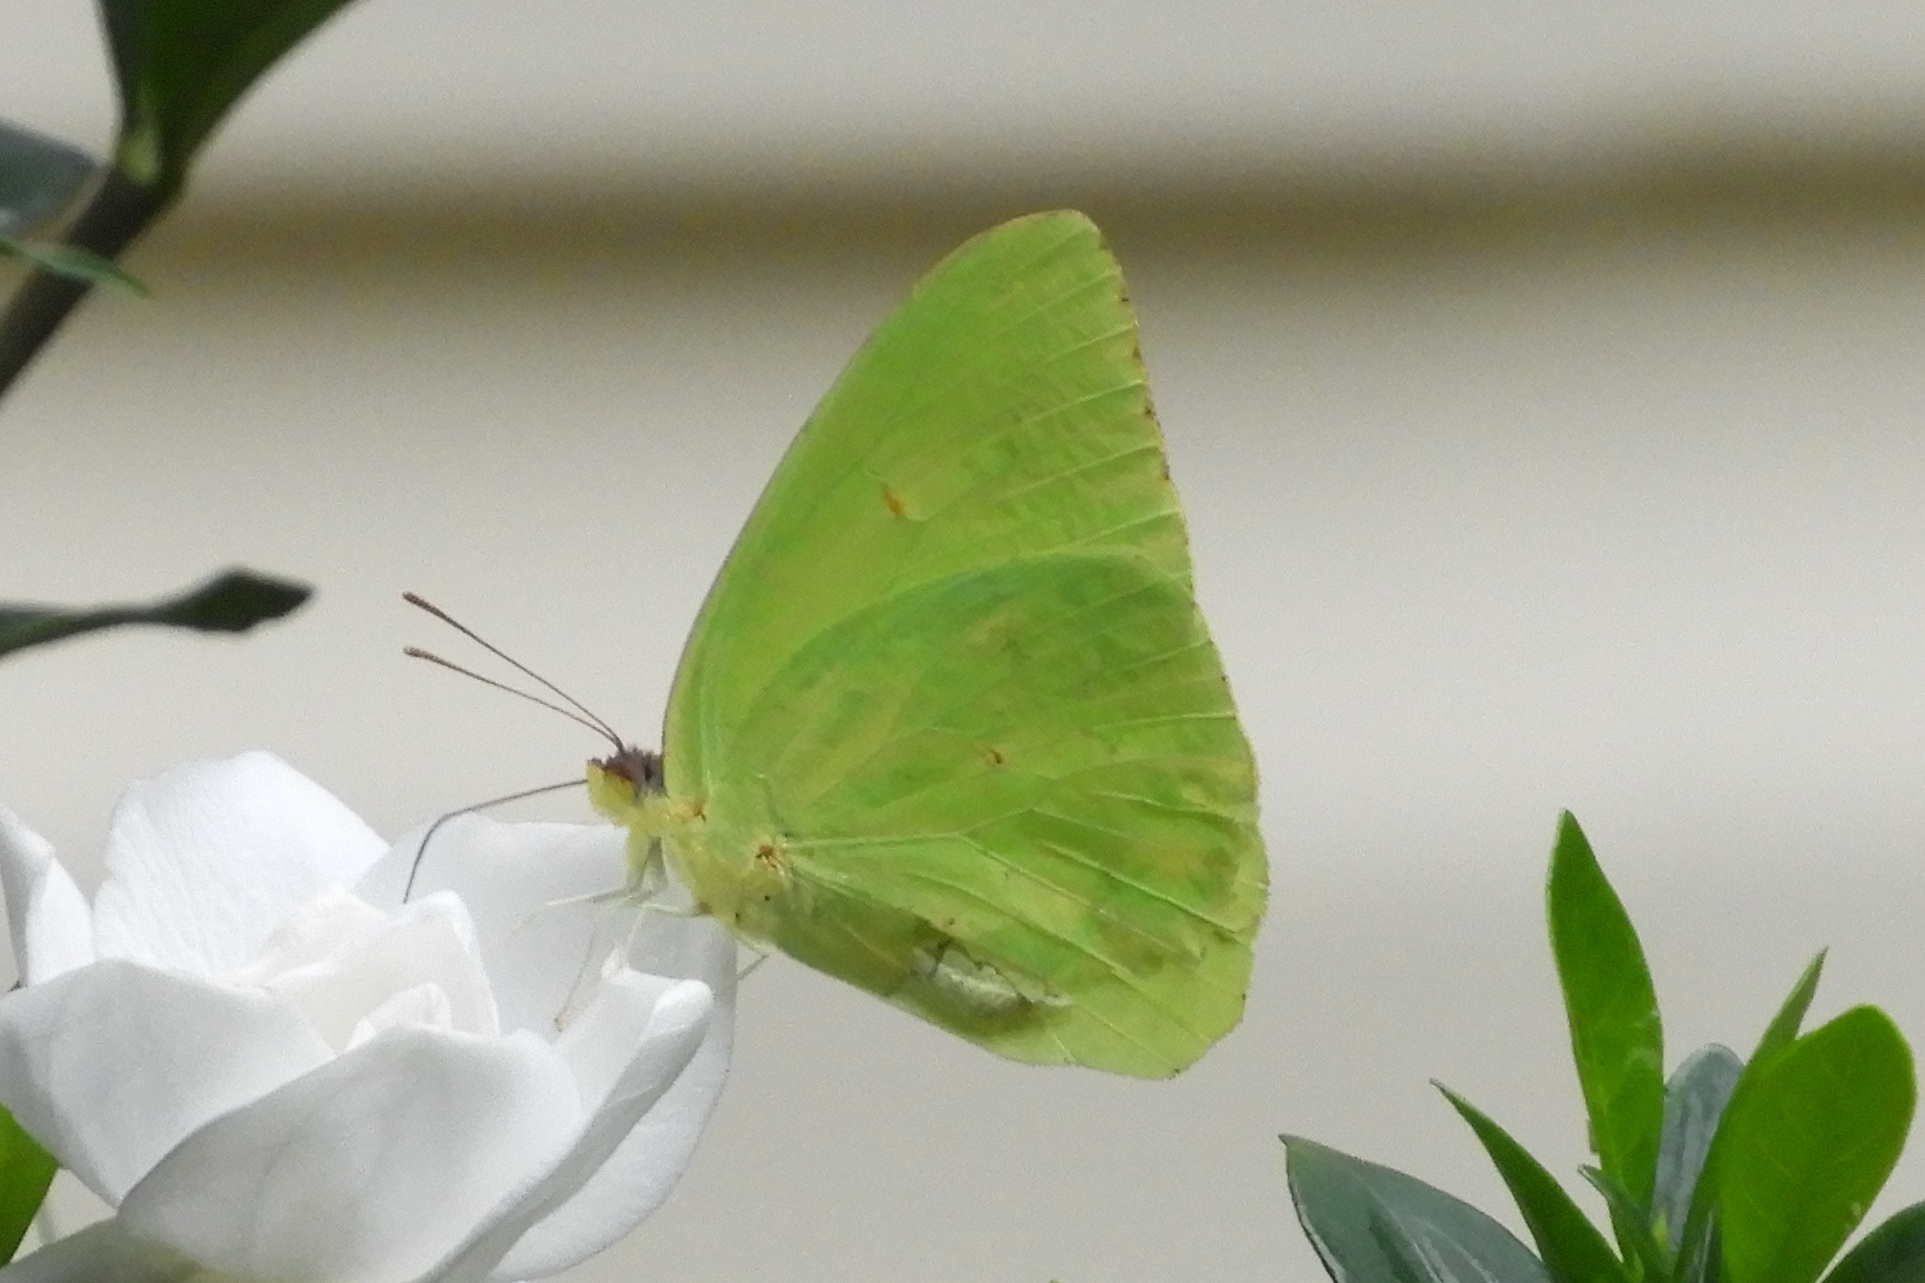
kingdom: Animalia
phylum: Arthropoda
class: Insecta
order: Lepidoptera
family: Pieridae
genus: Phoebis
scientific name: Phoebis sennae
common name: Cloudless sulphur
